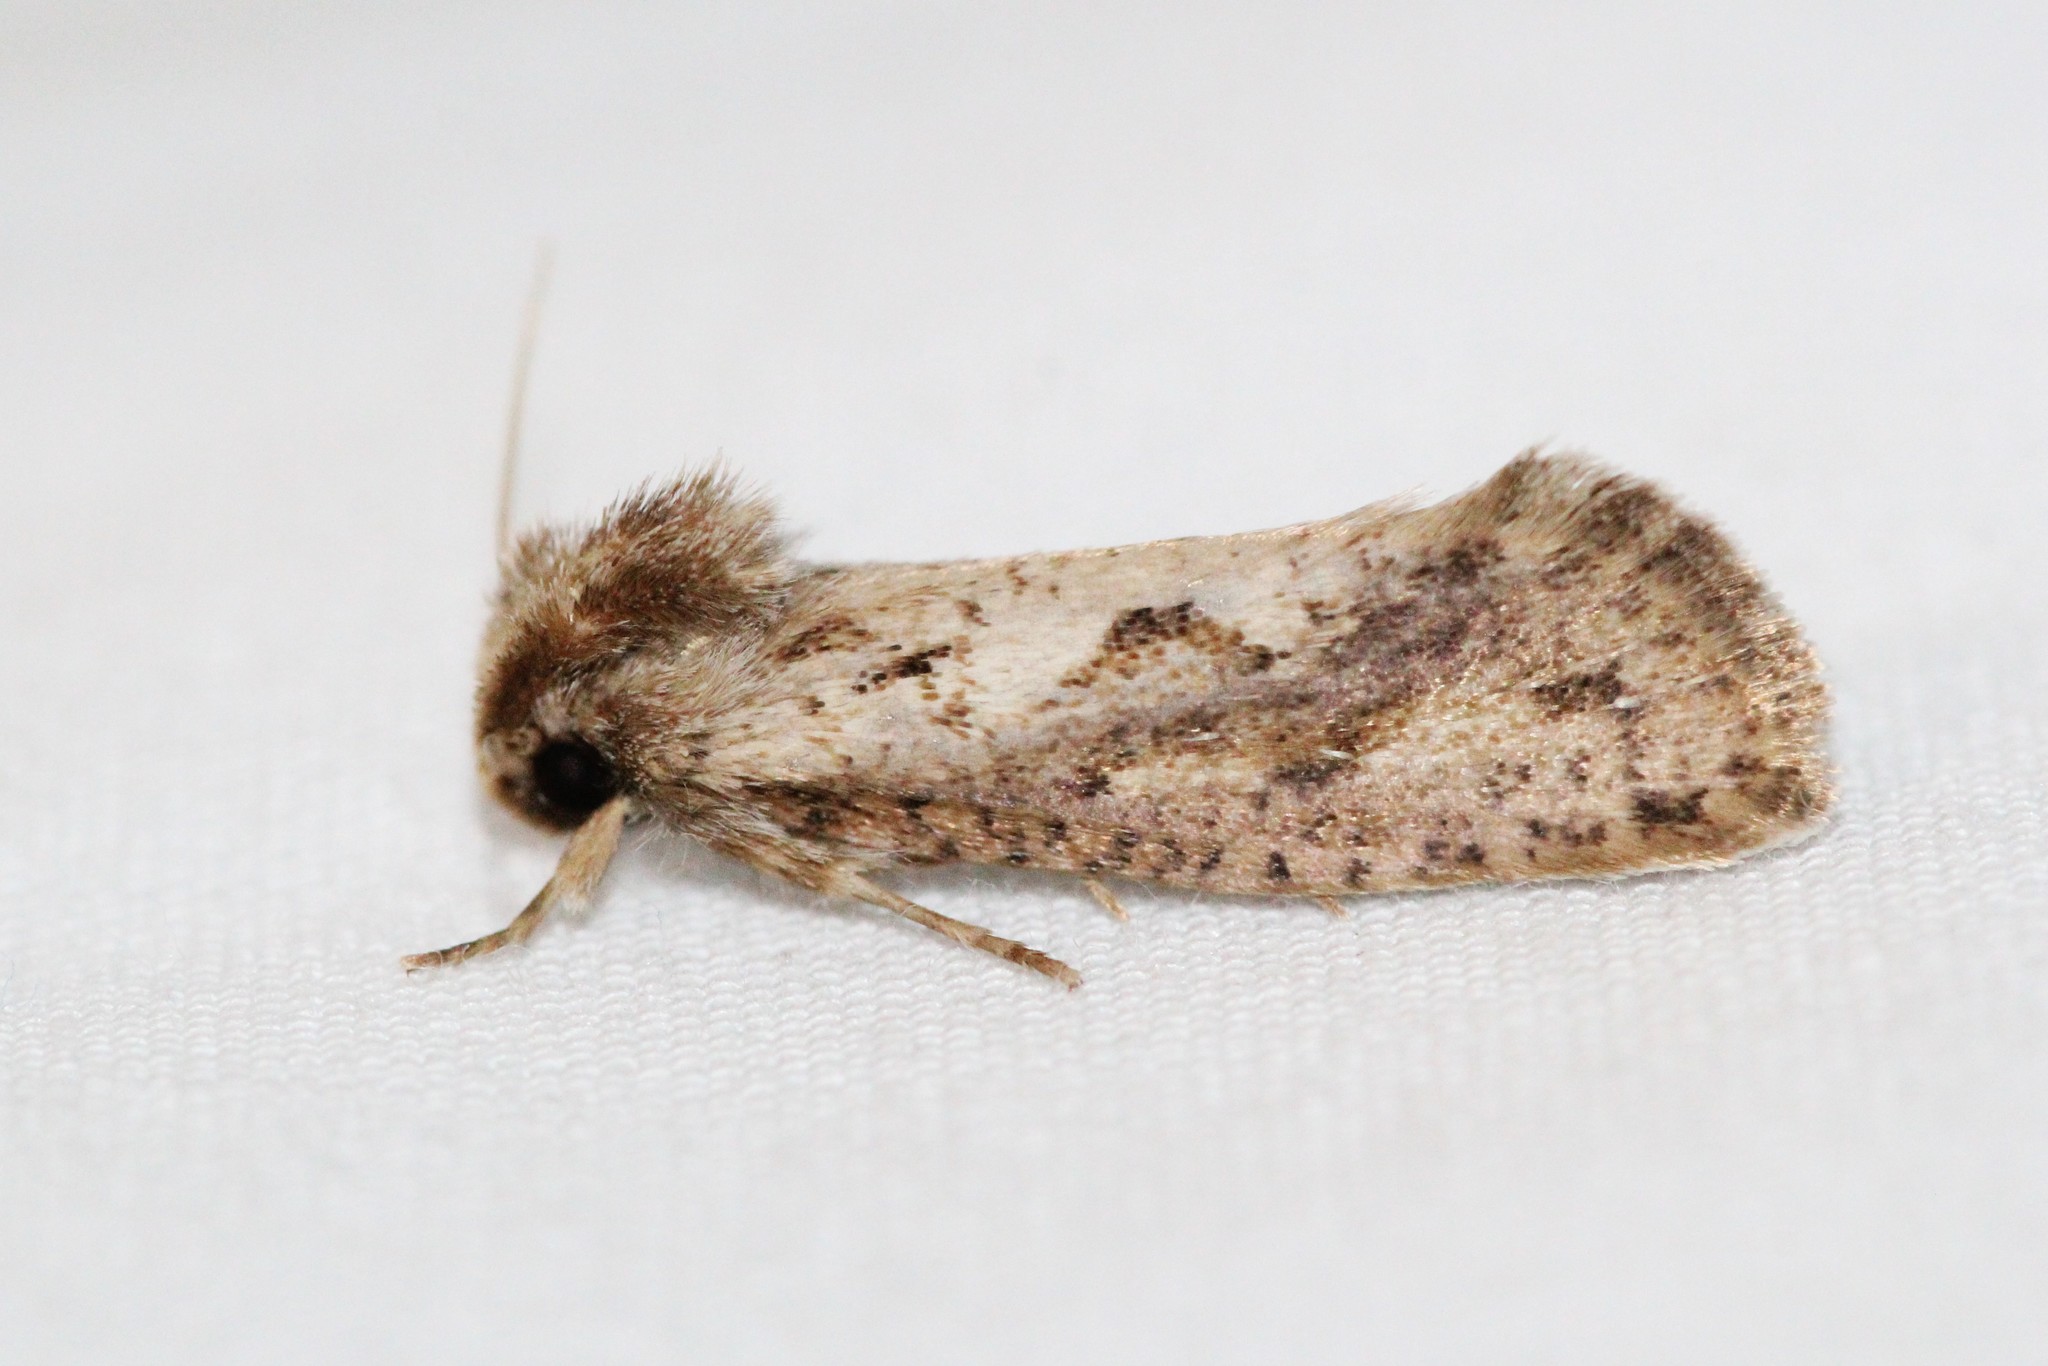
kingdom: Animalia
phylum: Arthropoda
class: Insecta
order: Lepidoptera
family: Tineidae
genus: Acrolophus
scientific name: Acrolophus popeanella
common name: Clemens' grass tubeworm moth
